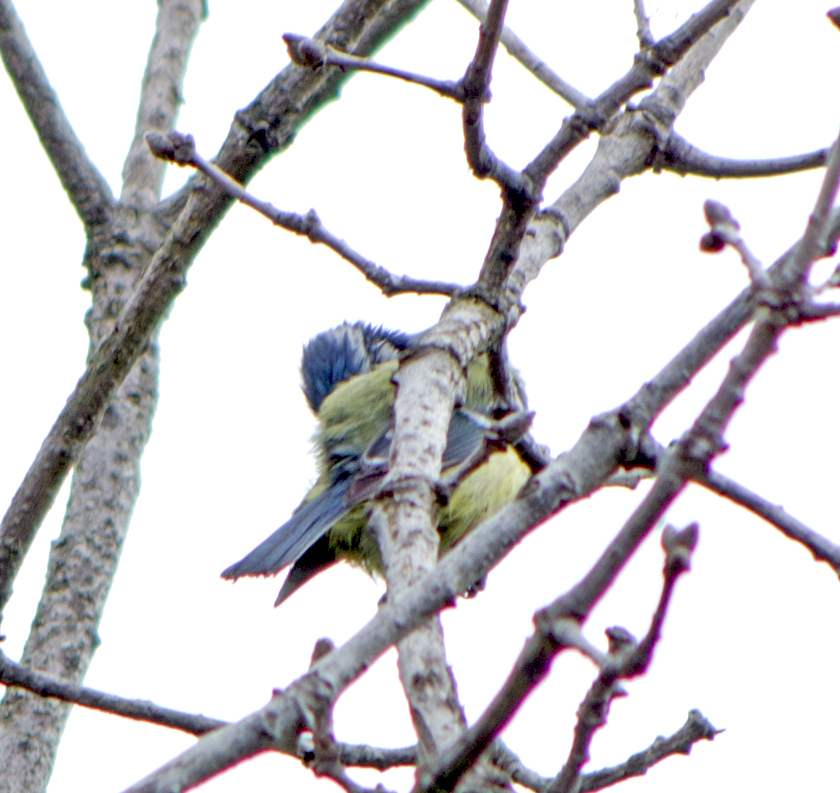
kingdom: Animalia
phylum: Chordata
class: Aves
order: Passeriformes
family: Paridae
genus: Cyanistes
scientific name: Cyanistes caeruleus
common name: Eurasian blue tit
